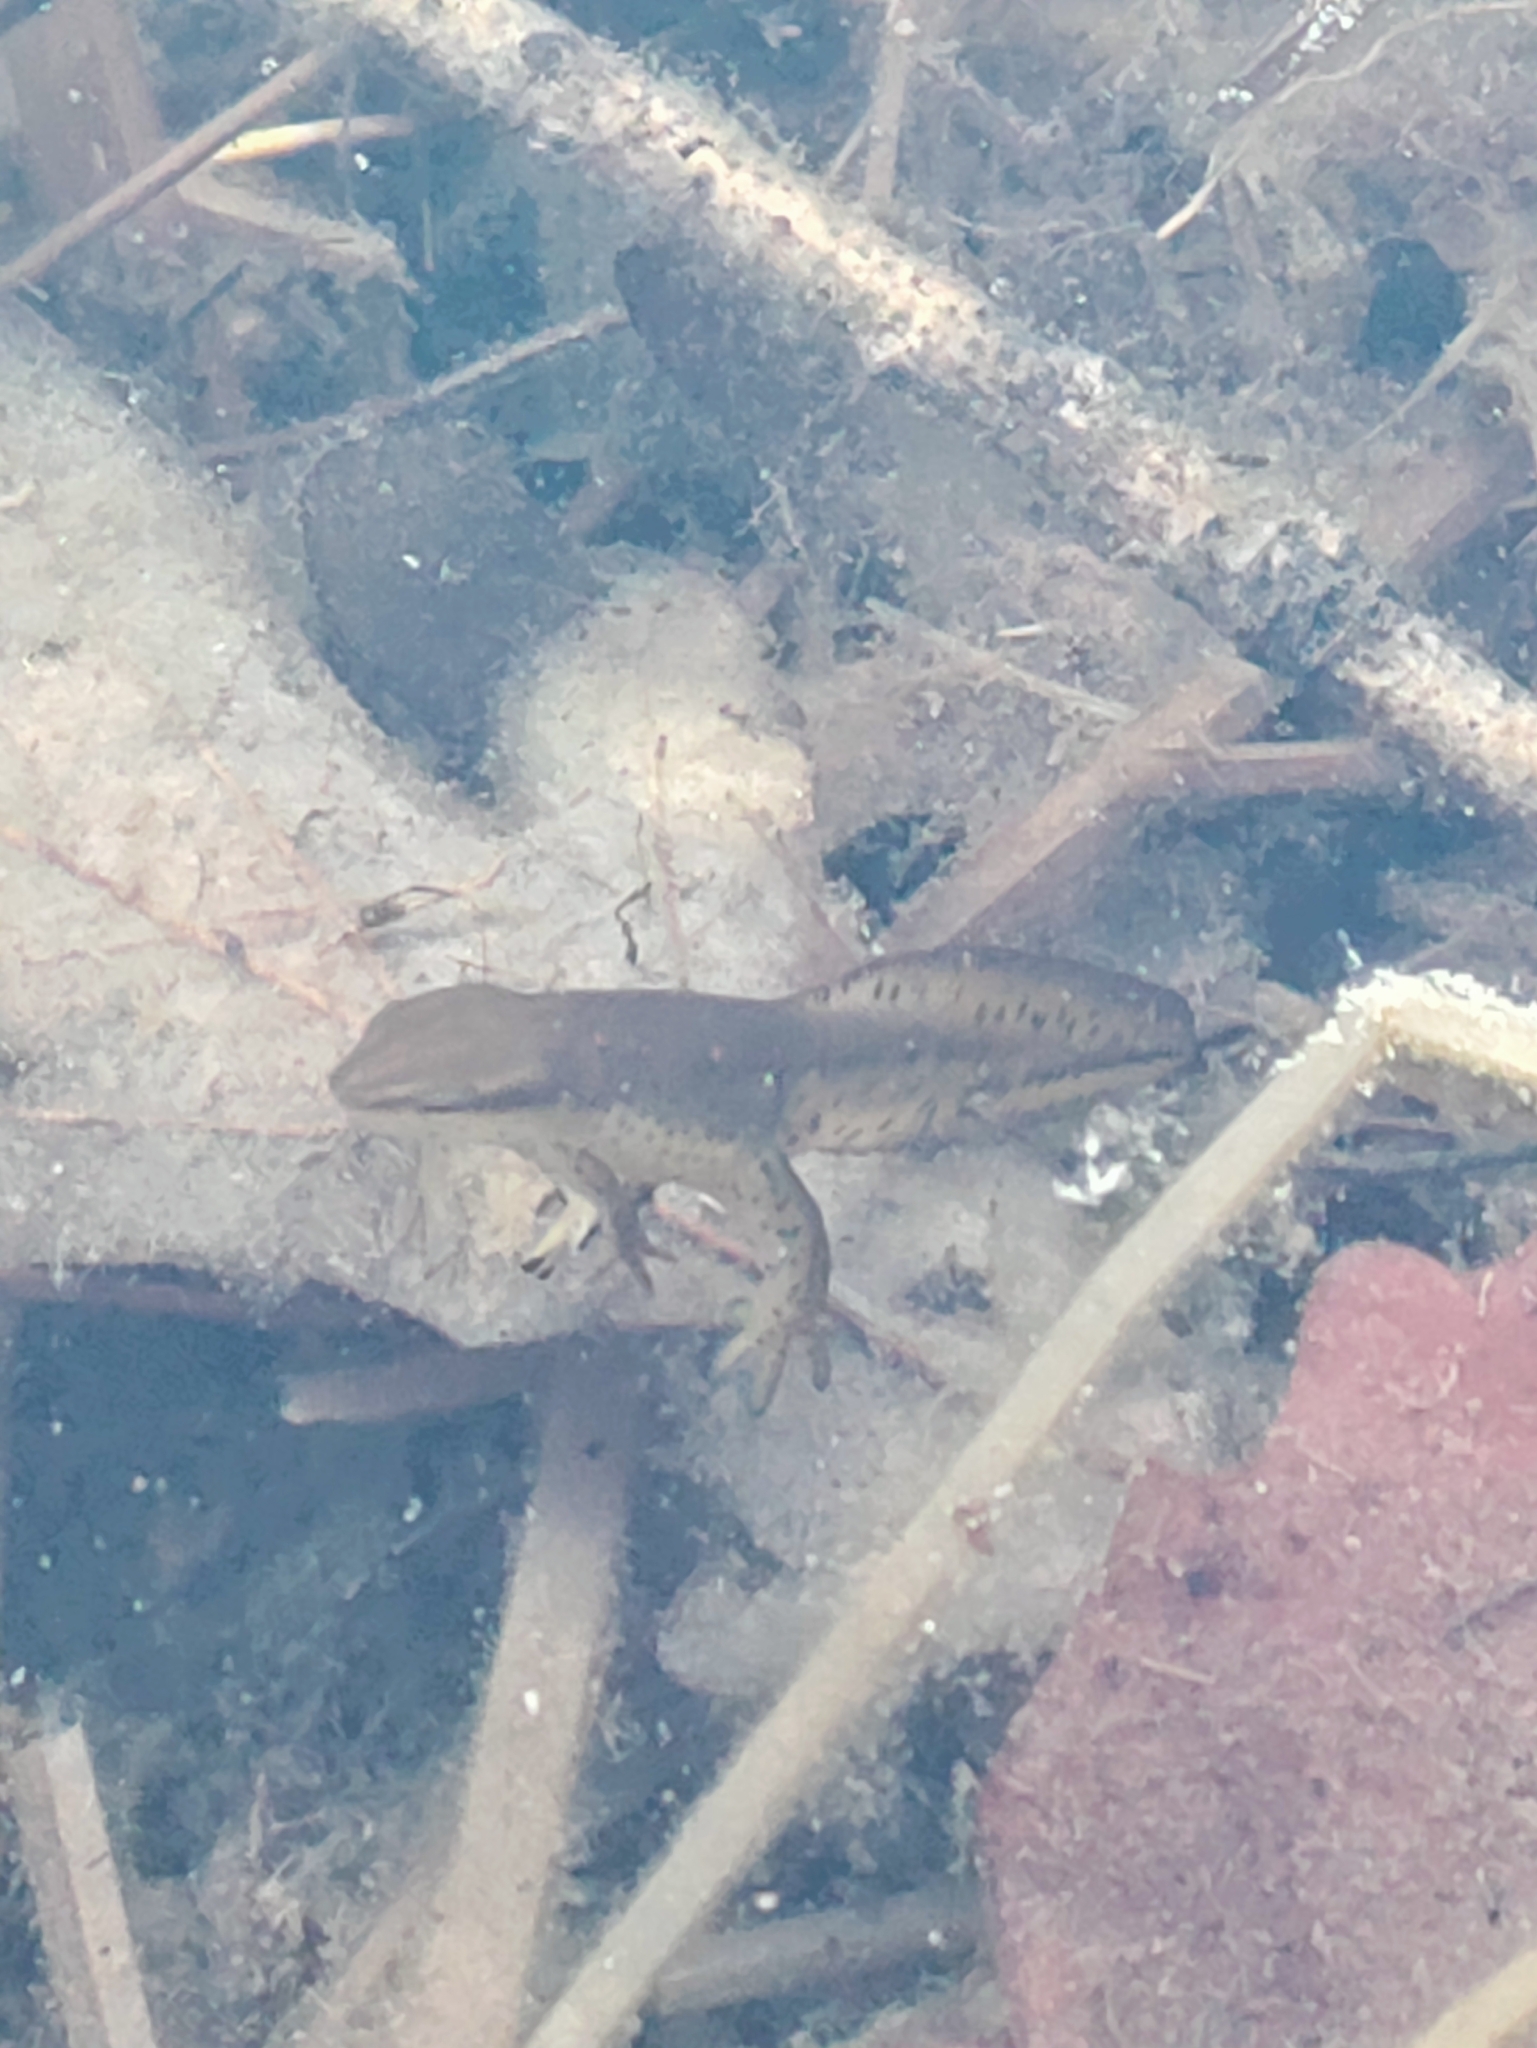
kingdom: Animalia
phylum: Chordata
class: Amphibia
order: Caudata
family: Salamandridae
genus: Notophthalmus
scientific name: Notophthalmus viridescens
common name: Eastern newt
